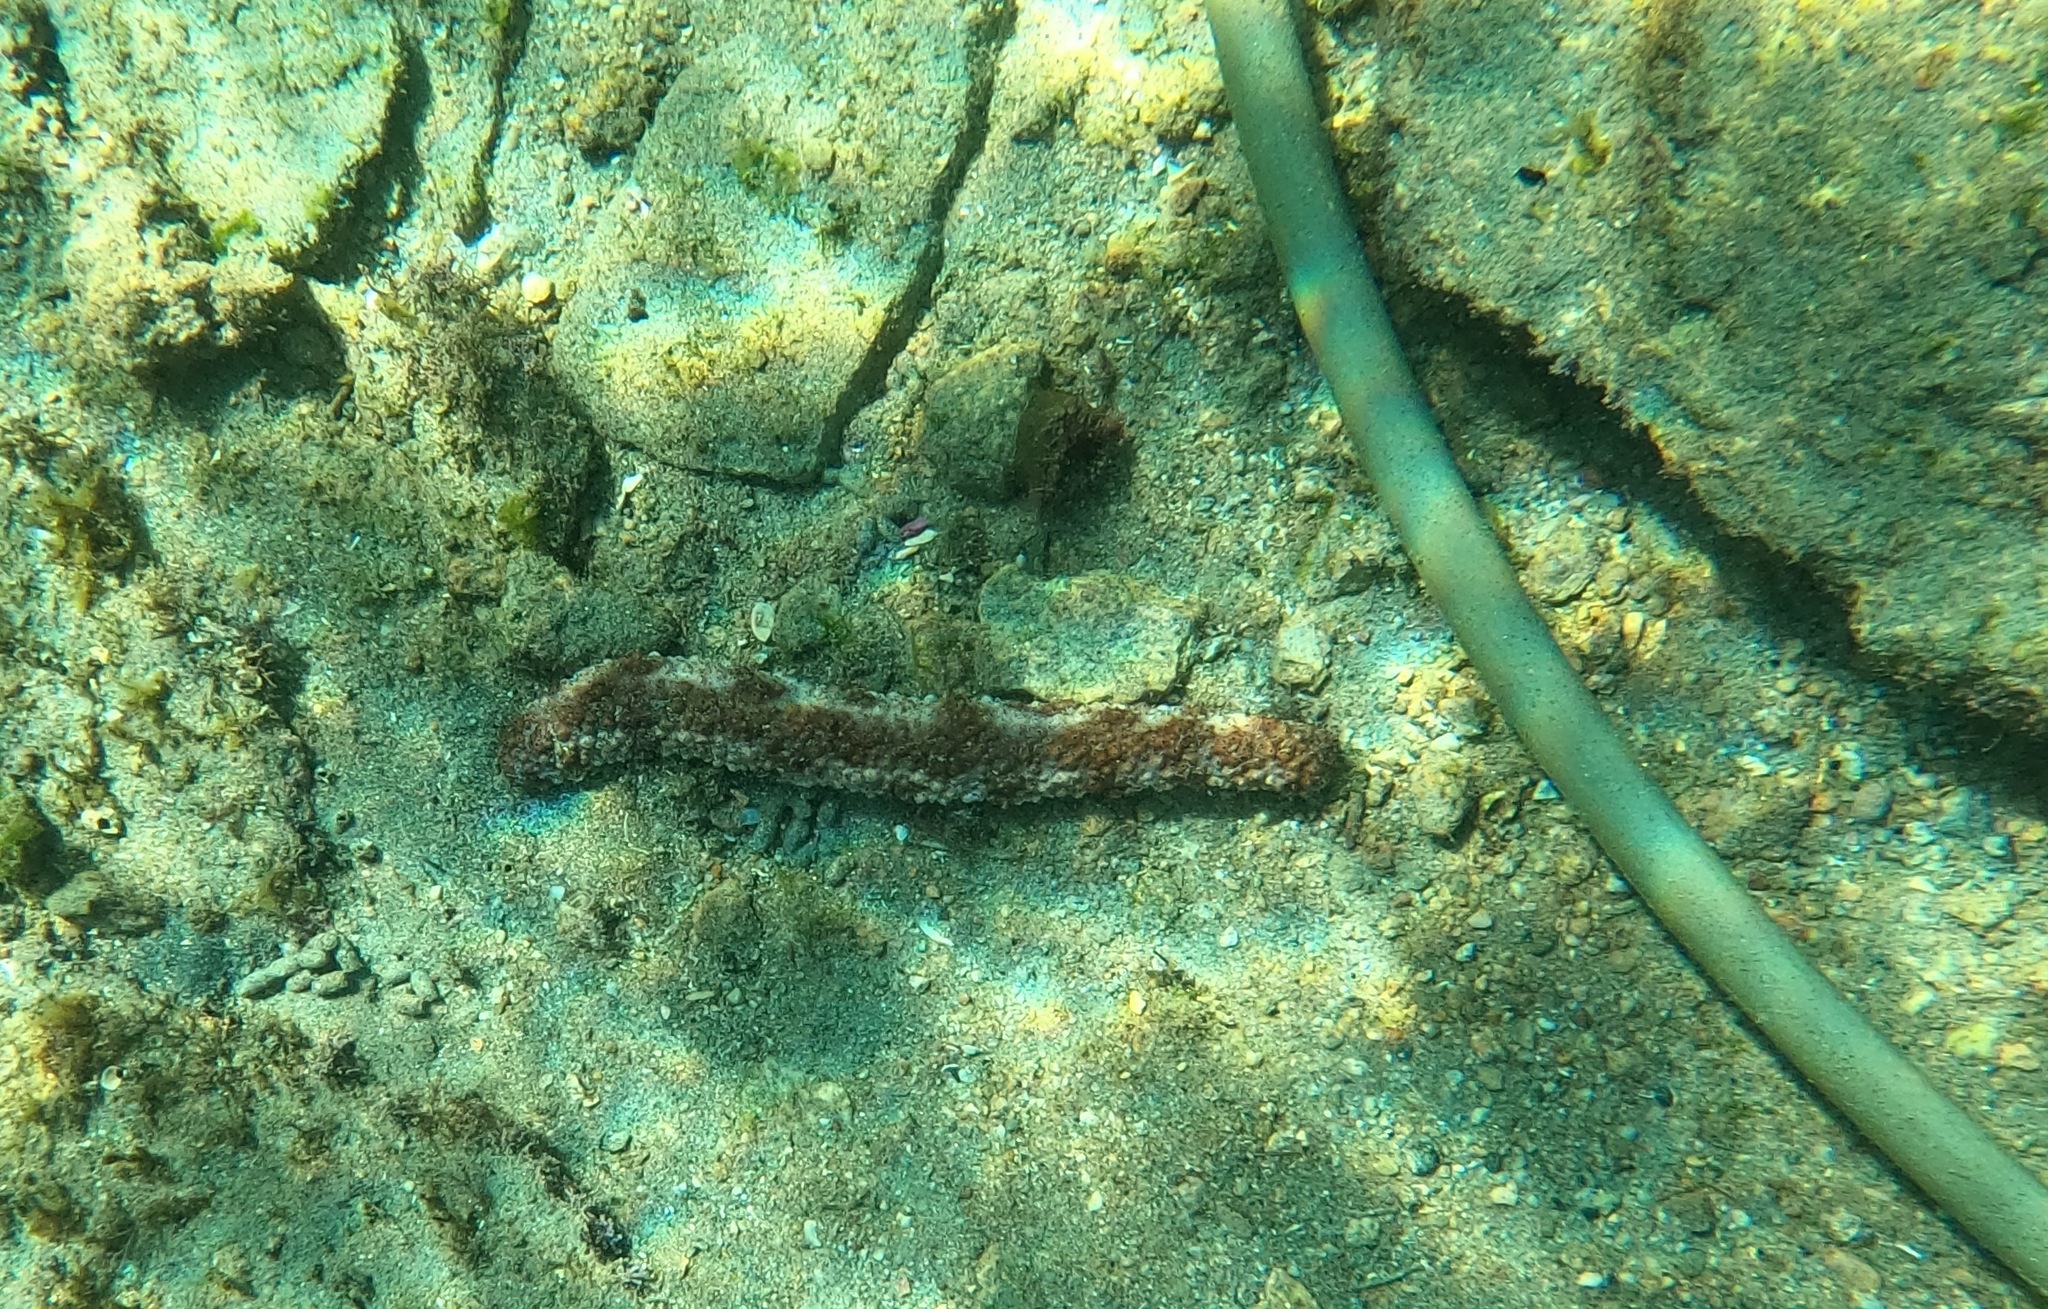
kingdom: Animalia
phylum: Echinodermata
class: Holothuroidea
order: Holothuriida
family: Holothuriidae
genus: Holothuria
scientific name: Holothuria fuscocinerea
